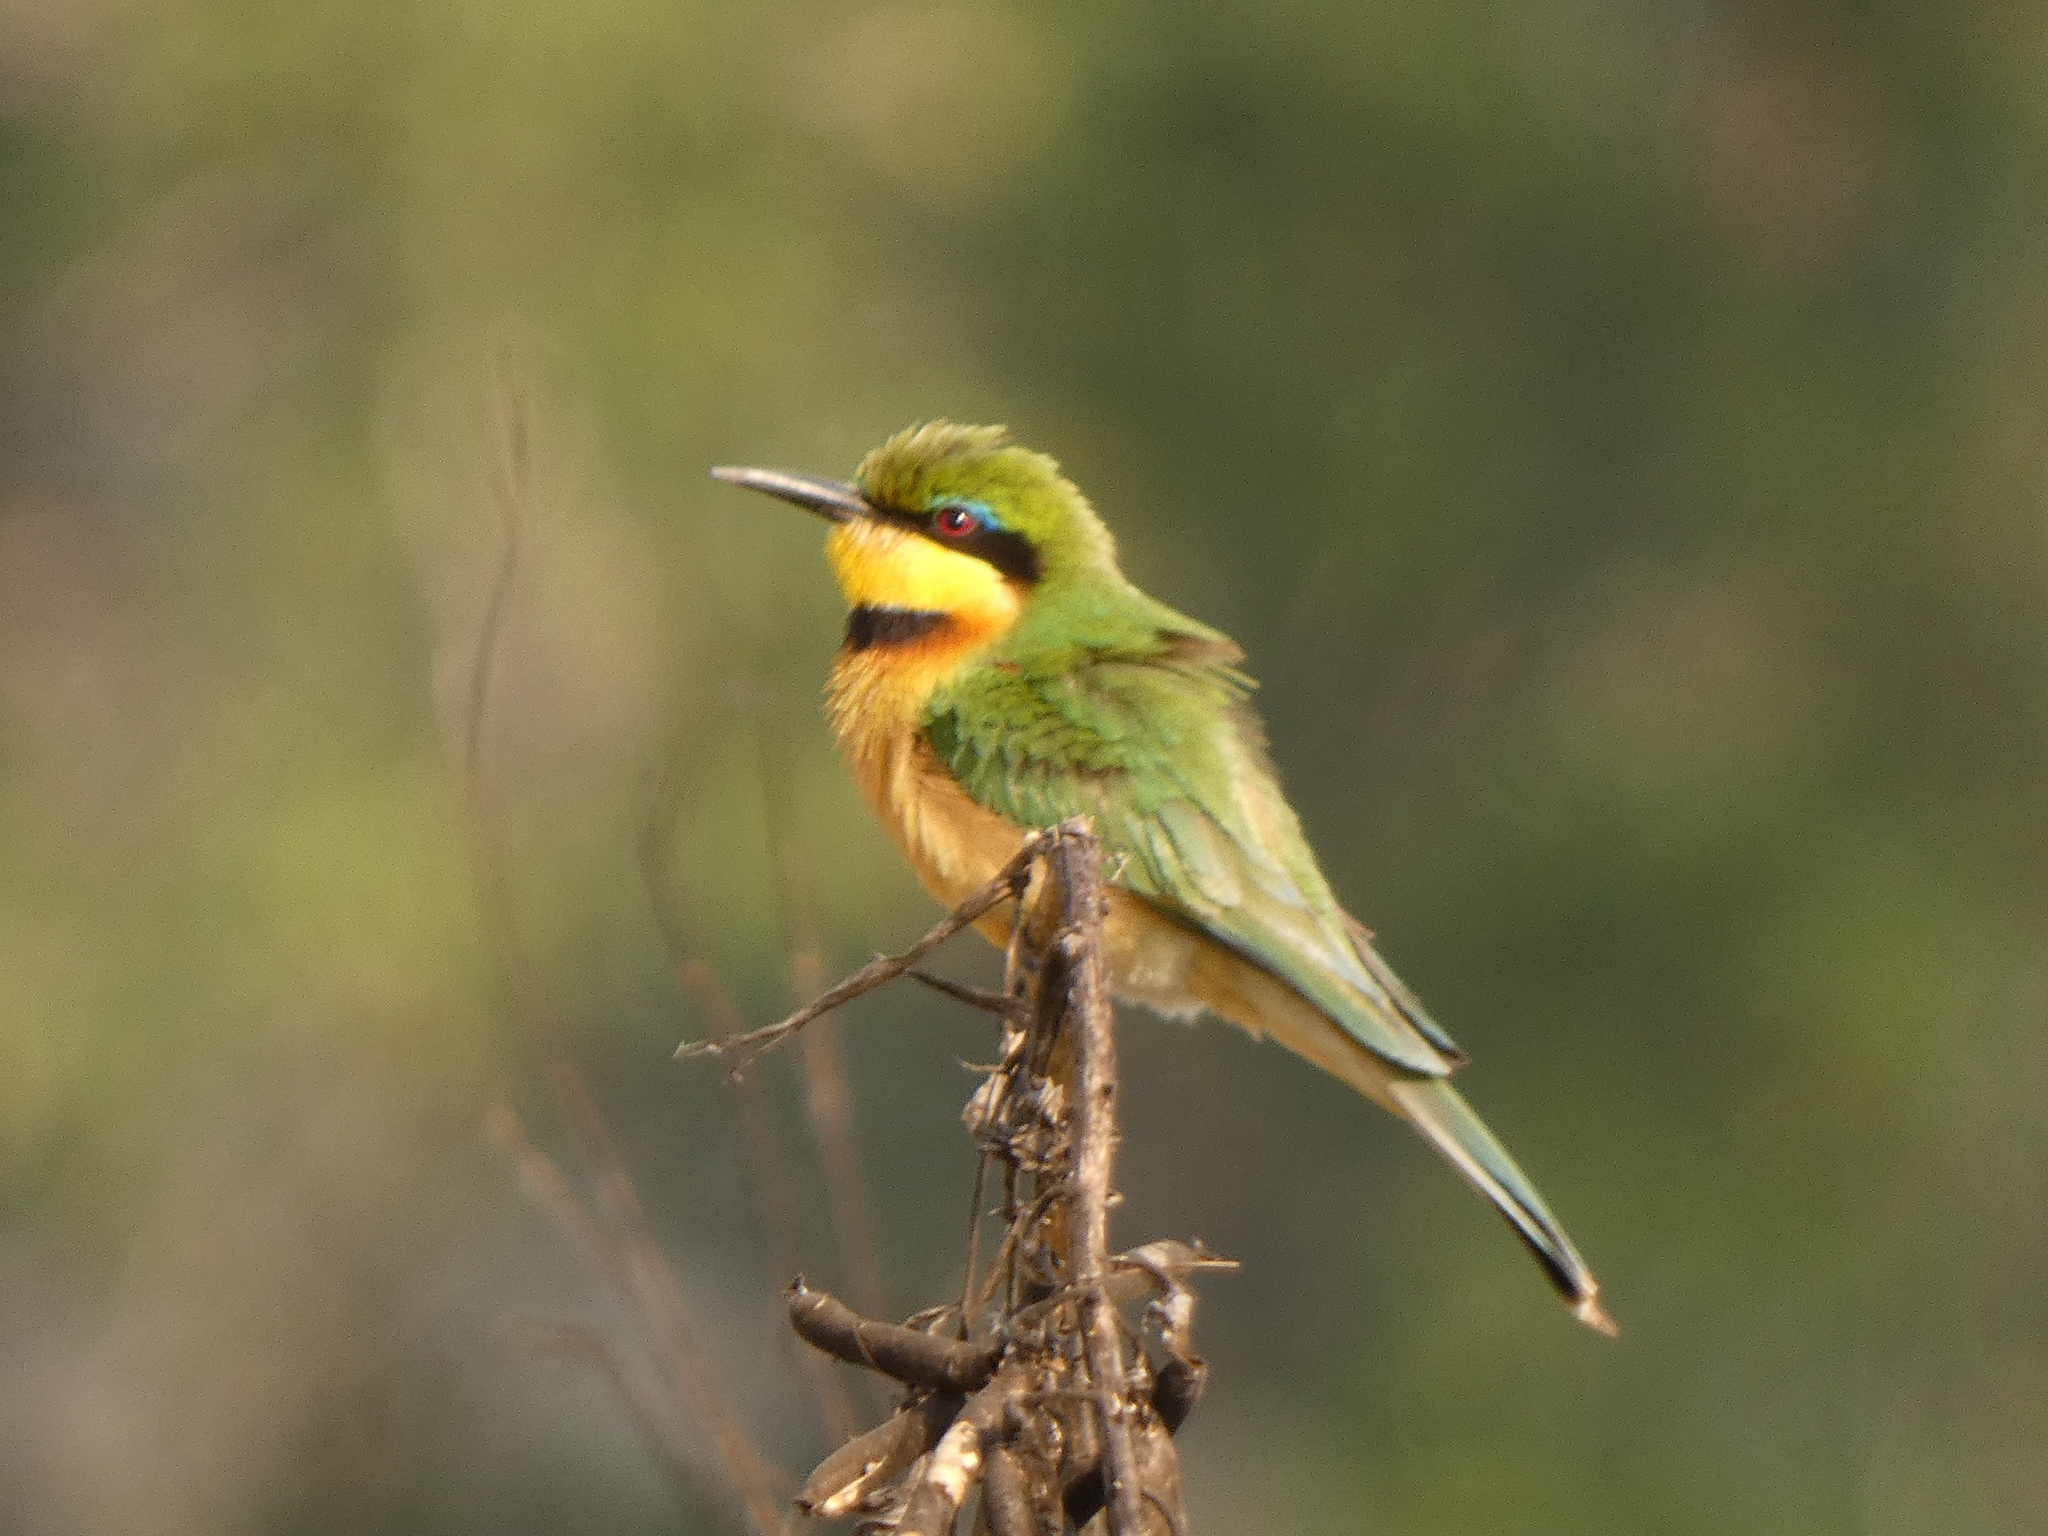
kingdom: Animalia
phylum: Chordata
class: Aves
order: Coraciiformes
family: Meropidae
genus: Merops
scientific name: Merops pusillus
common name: Little bee-eater
